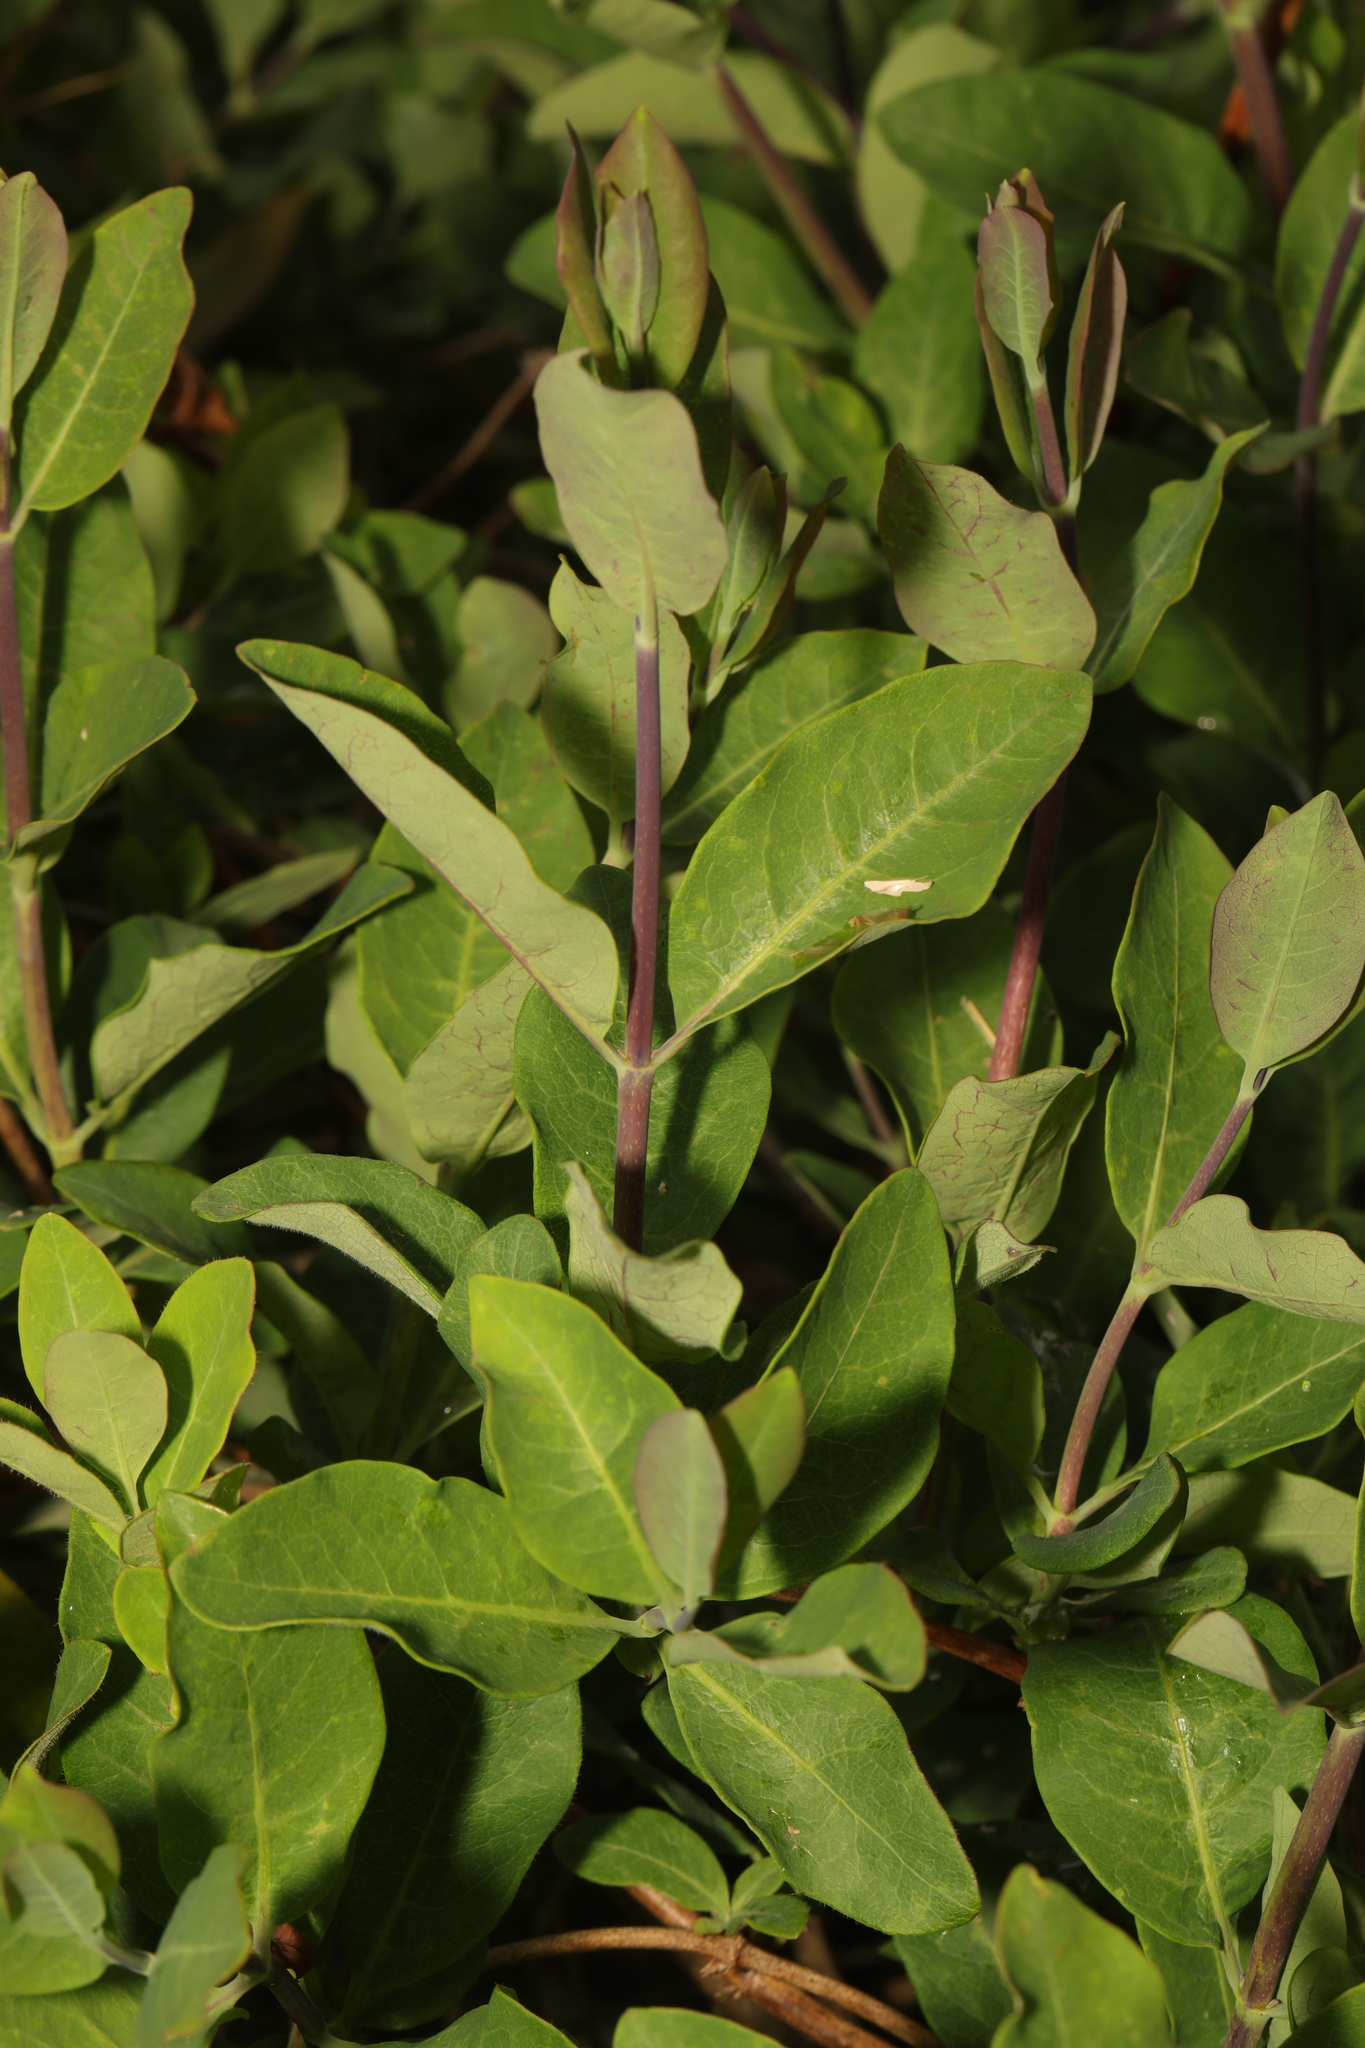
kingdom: Plantae
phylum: Tracheophyta
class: Magnoliopsida
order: Dipsacales
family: Caprifoliaceae
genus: Lonicera
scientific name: Lonicera periclymenum
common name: European honeysuckle
